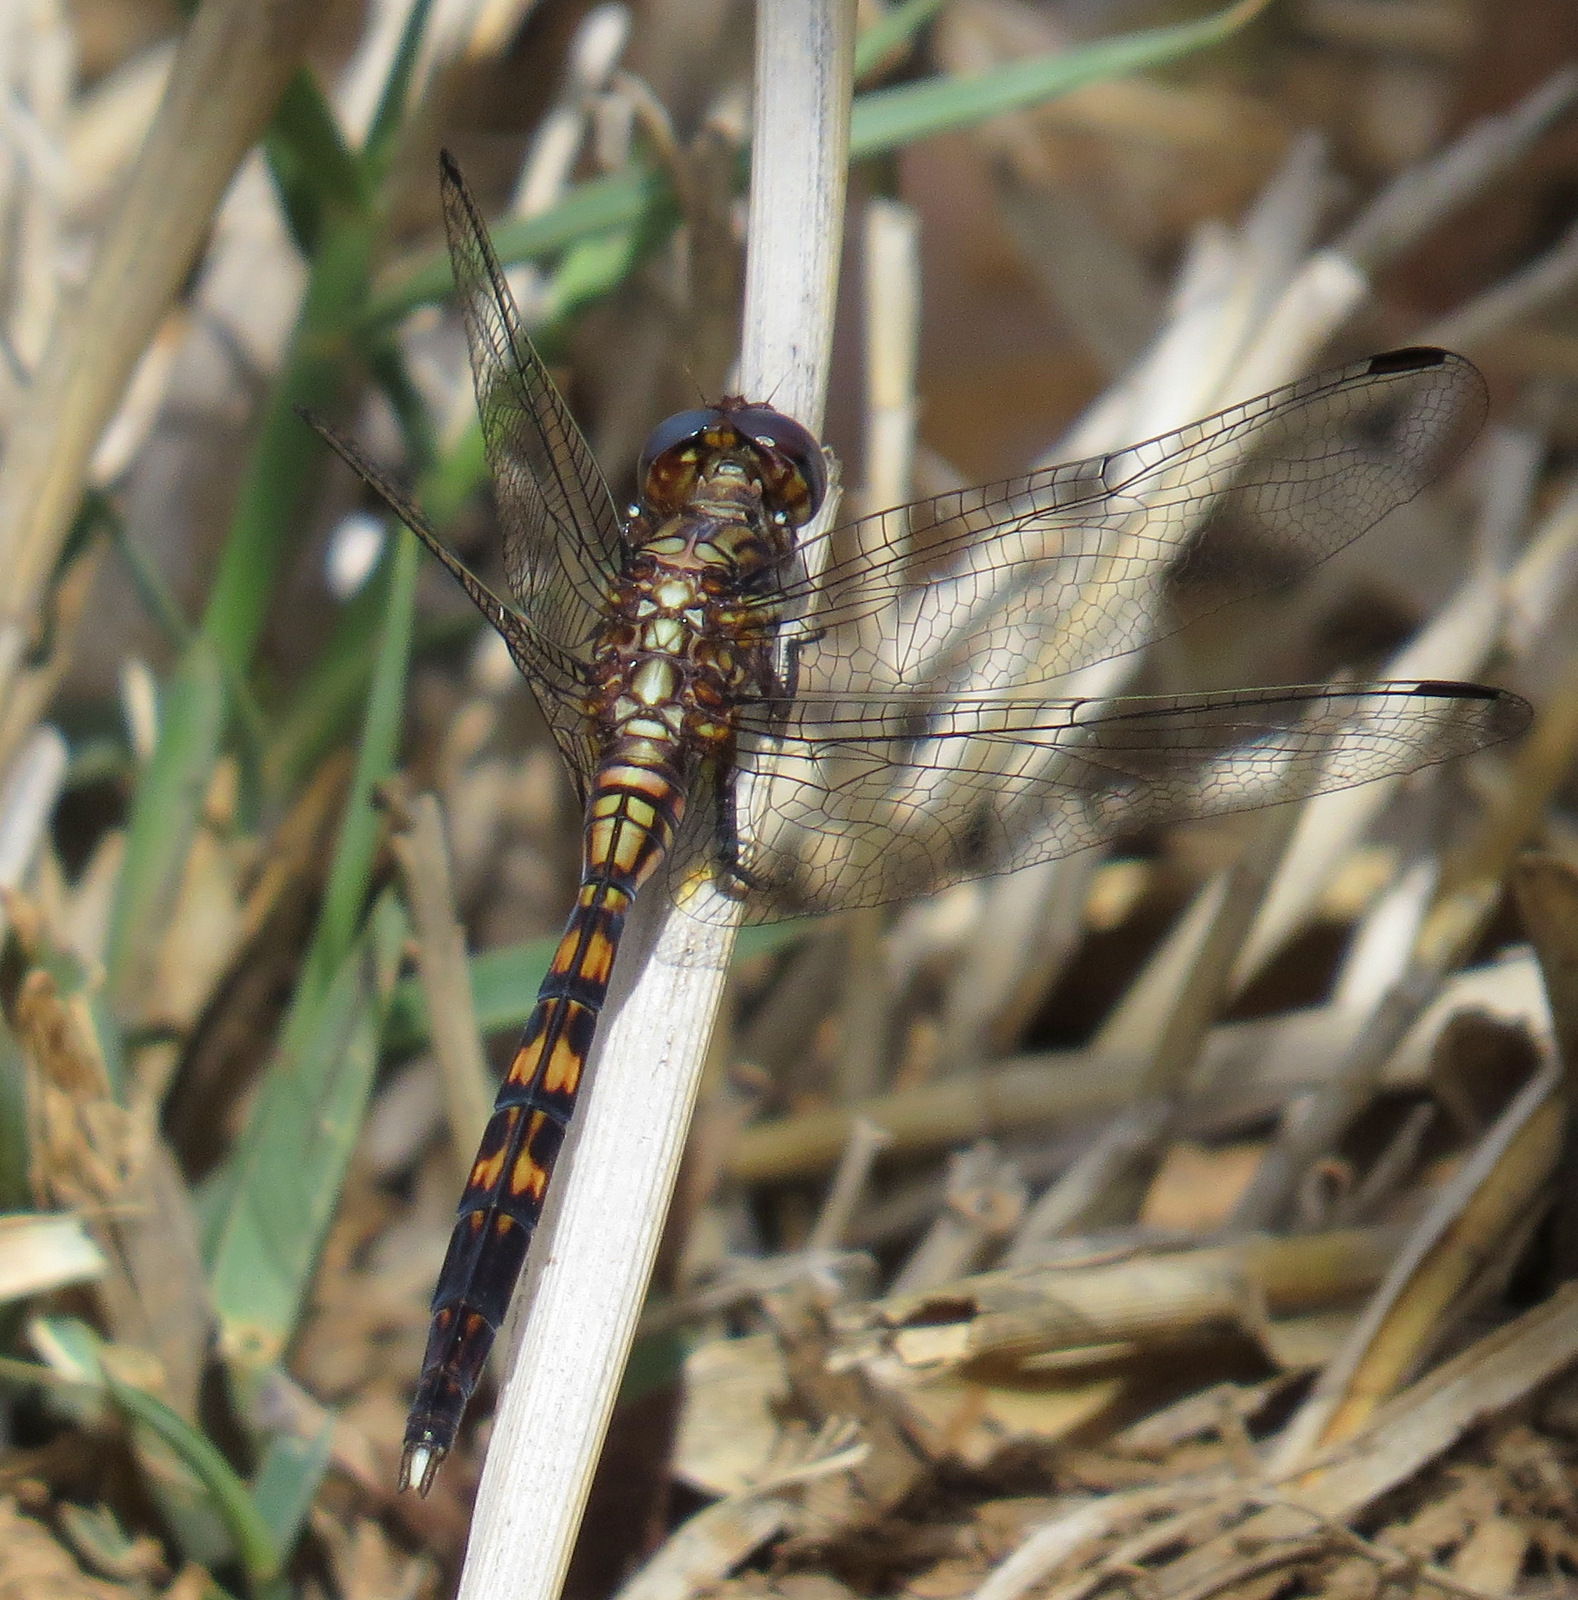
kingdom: Animalia
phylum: Arthropoda
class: Insecta
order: Odonata
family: Libellulidae
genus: Orthetrum
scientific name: Orthetrum julia
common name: Julia skimmer
